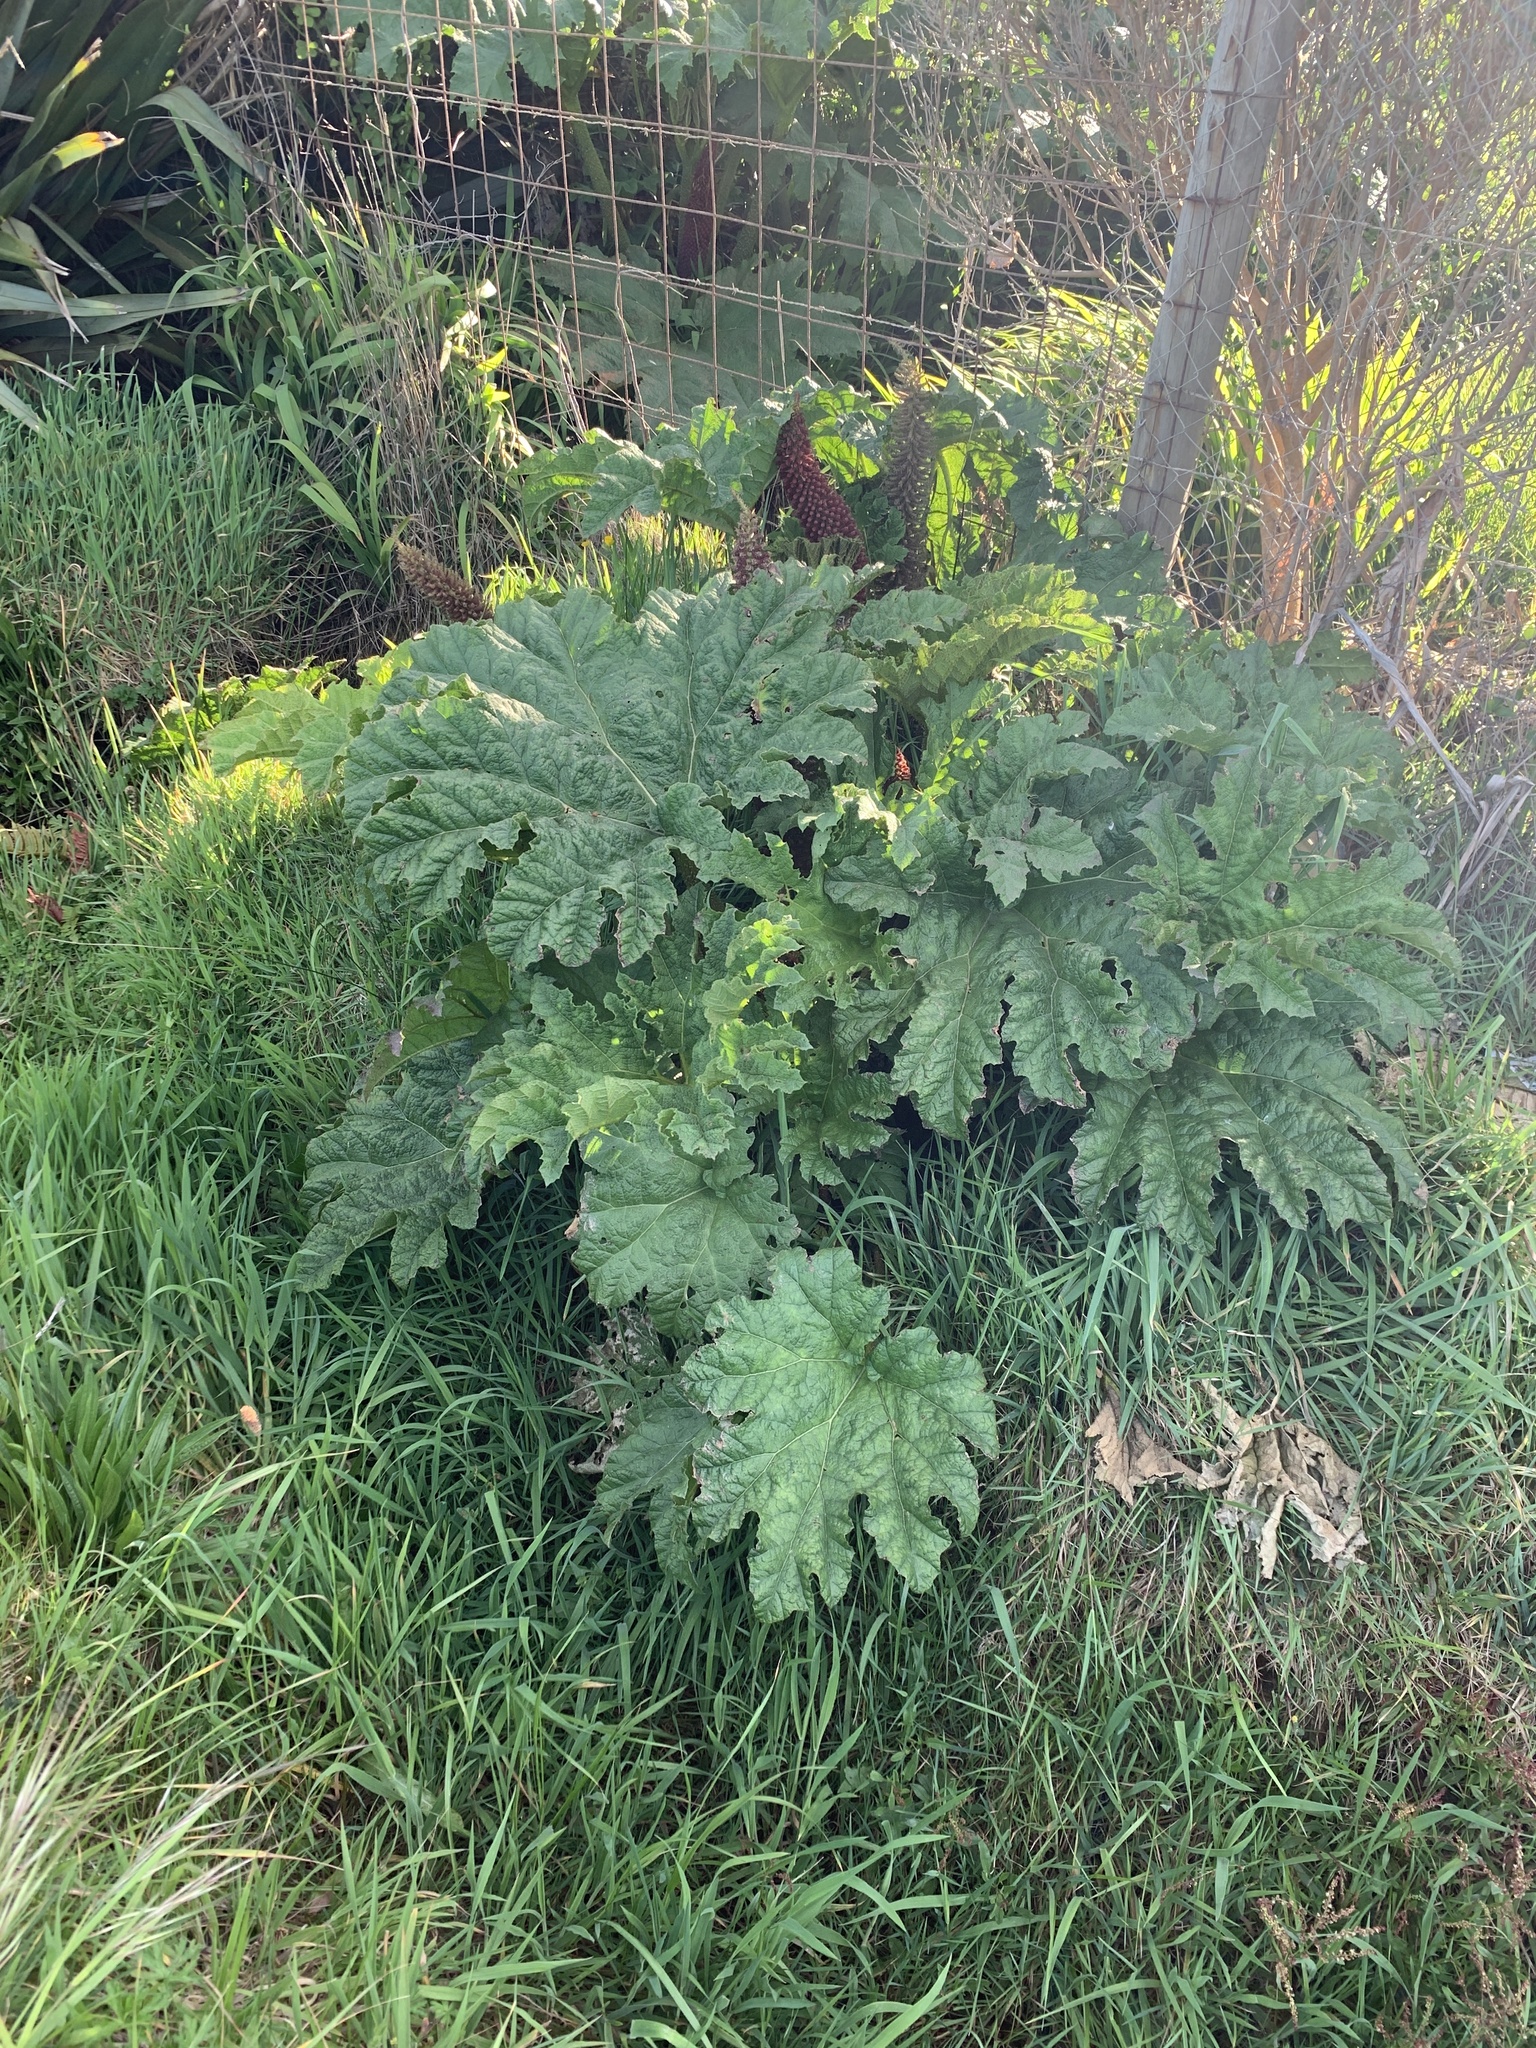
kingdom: Plantae
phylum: Tracheophyta
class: Magnoliopsida
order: Gunnerales
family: Gunneraceae
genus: Gunnera
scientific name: Gunnera tinctoria
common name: Giant-rhubarb
